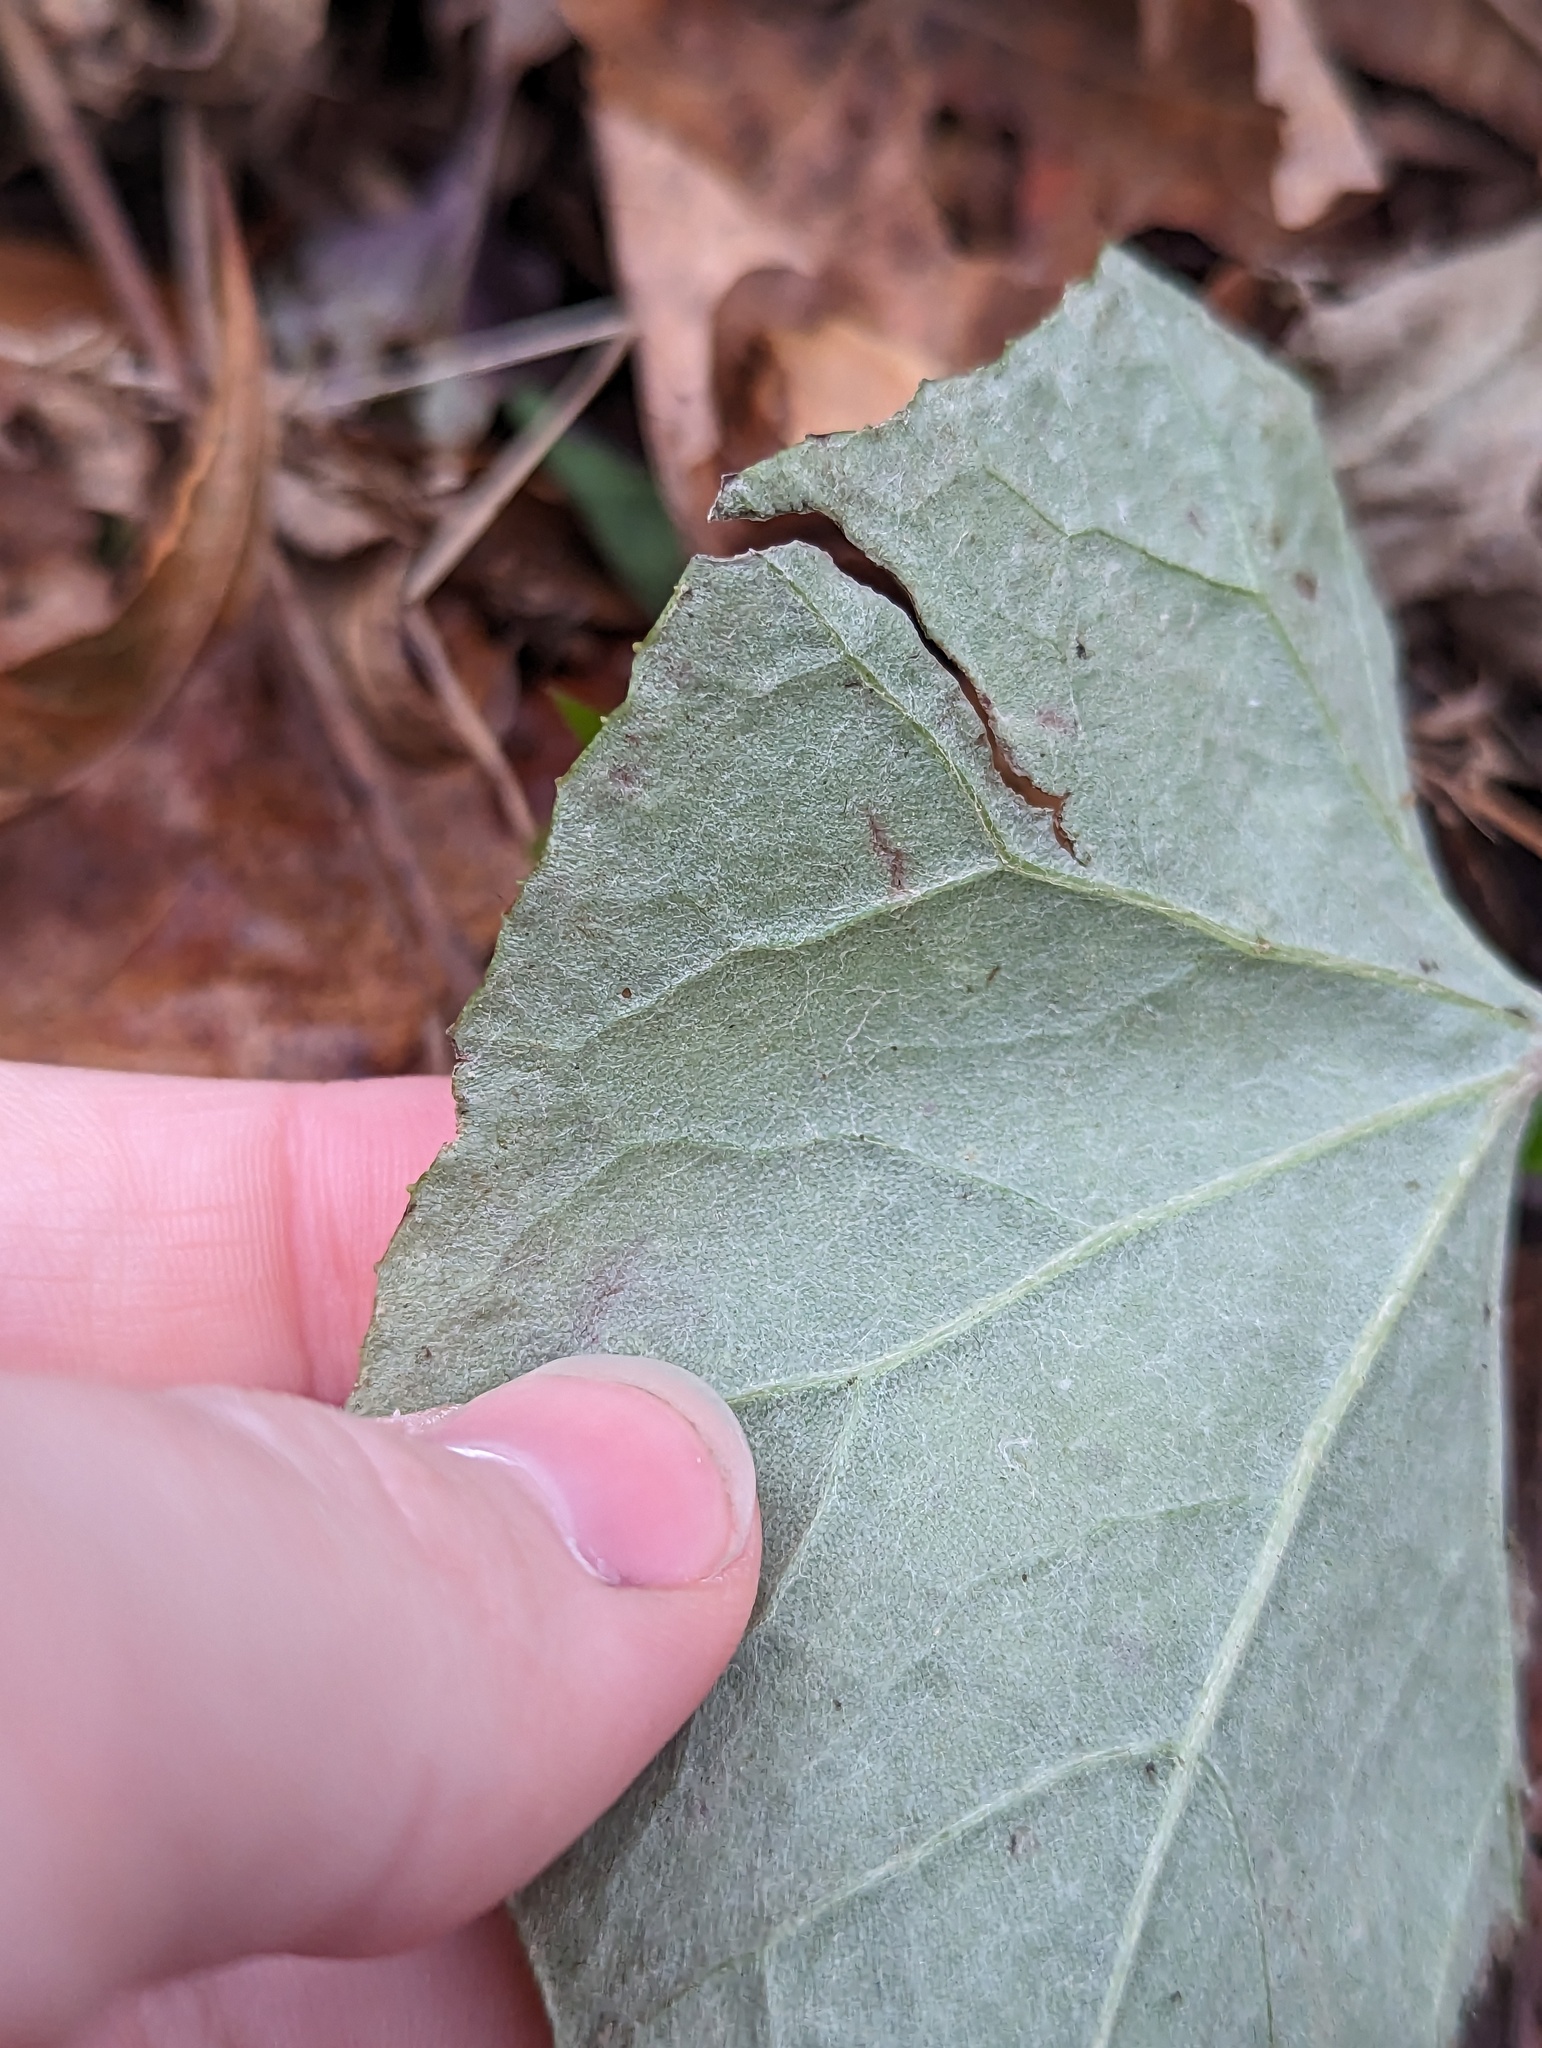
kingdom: Animalia
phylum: Arthropoda
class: Insecta
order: Lepidoptera
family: Gracillariidae
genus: Phyllocnistis
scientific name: Phyllocnistis insignis
